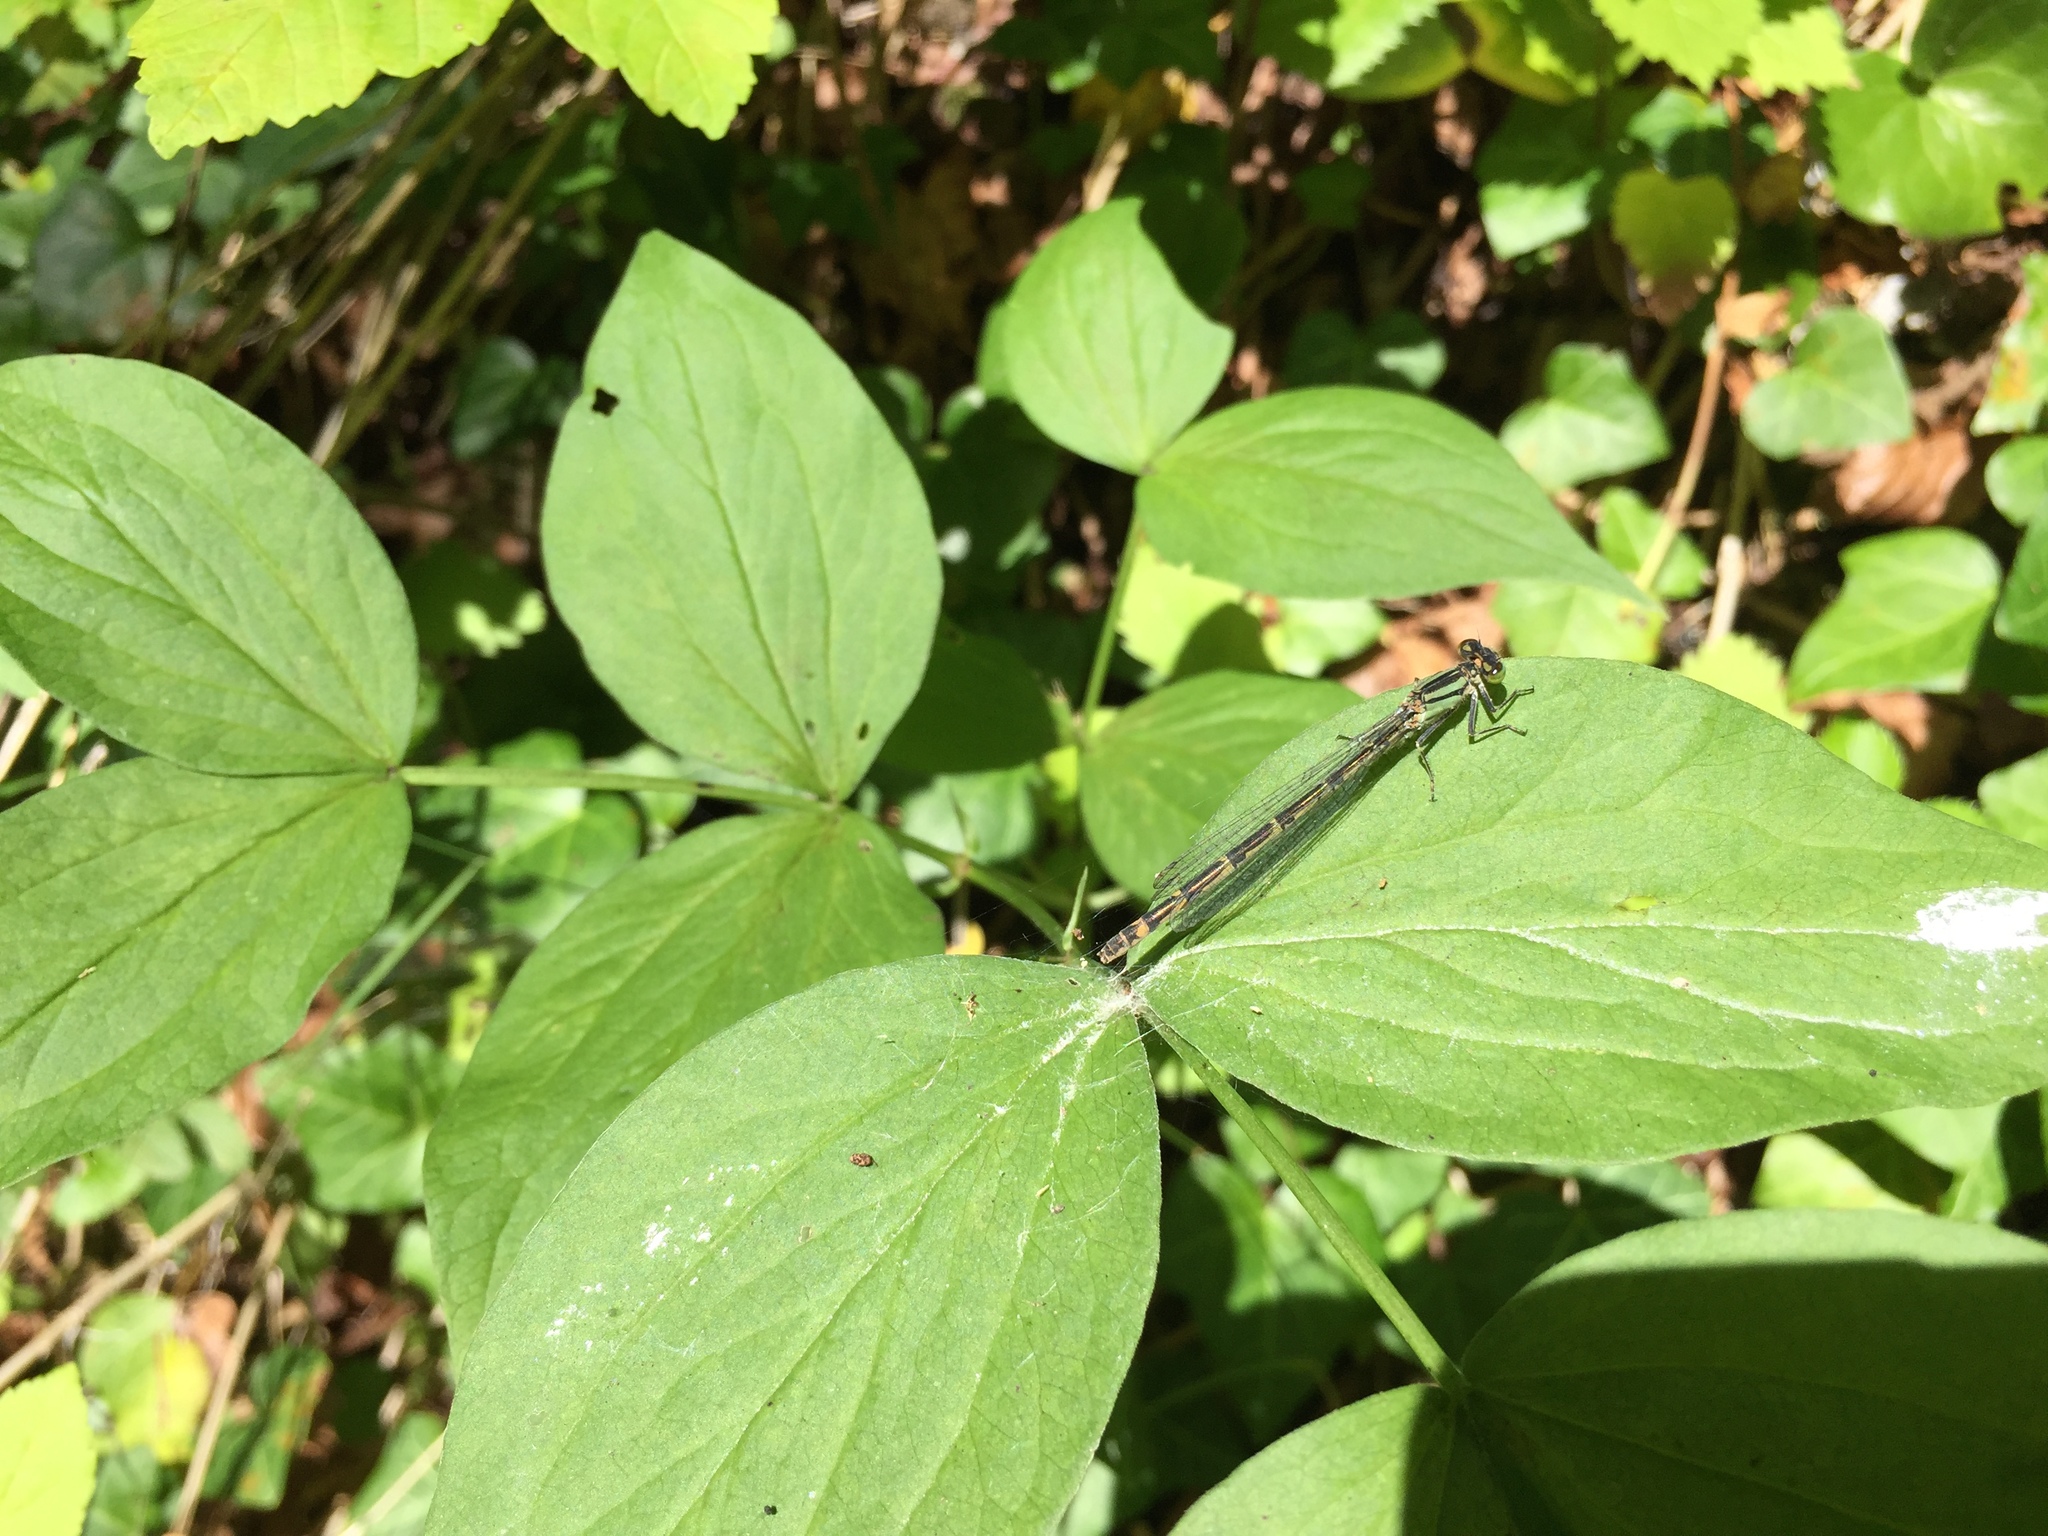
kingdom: Animalia
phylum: Arthropoda
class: Insecta
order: Odonata
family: Coenagrionidae
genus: Enallagma
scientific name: Enallagma cyathigerum
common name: Common blue damselfly
